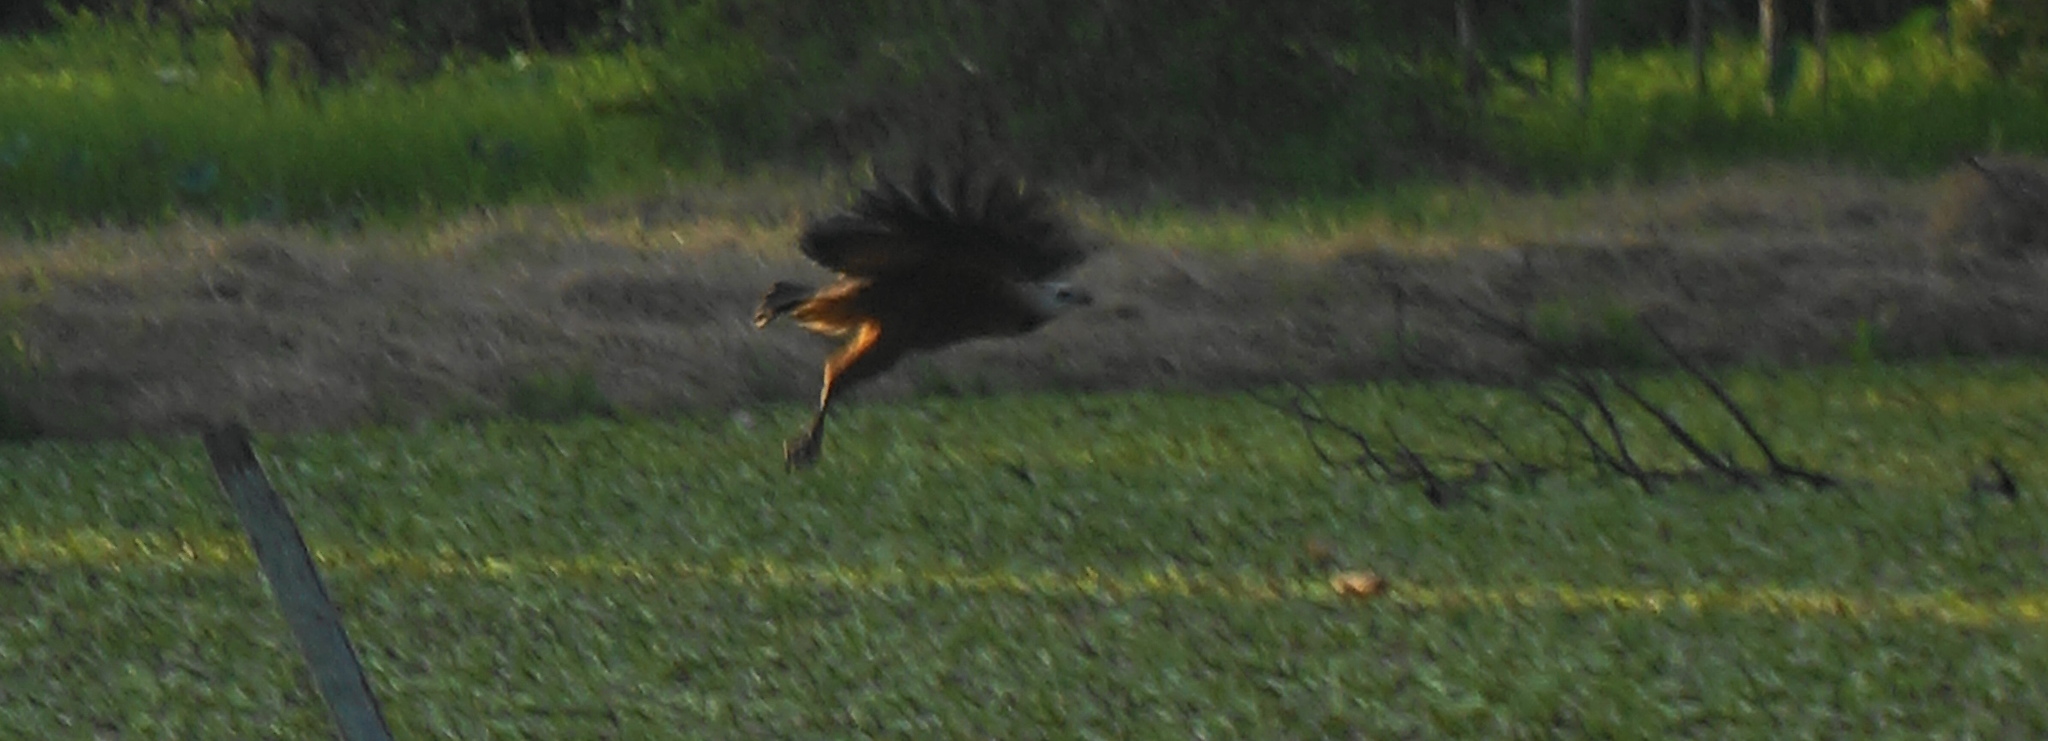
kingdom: Animalia
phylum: Chordata
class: Aves
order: Accipitriformes
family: Accipitridae
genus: Busarellus
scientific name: Busarellus nigricollis
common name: Black-collared hawk
